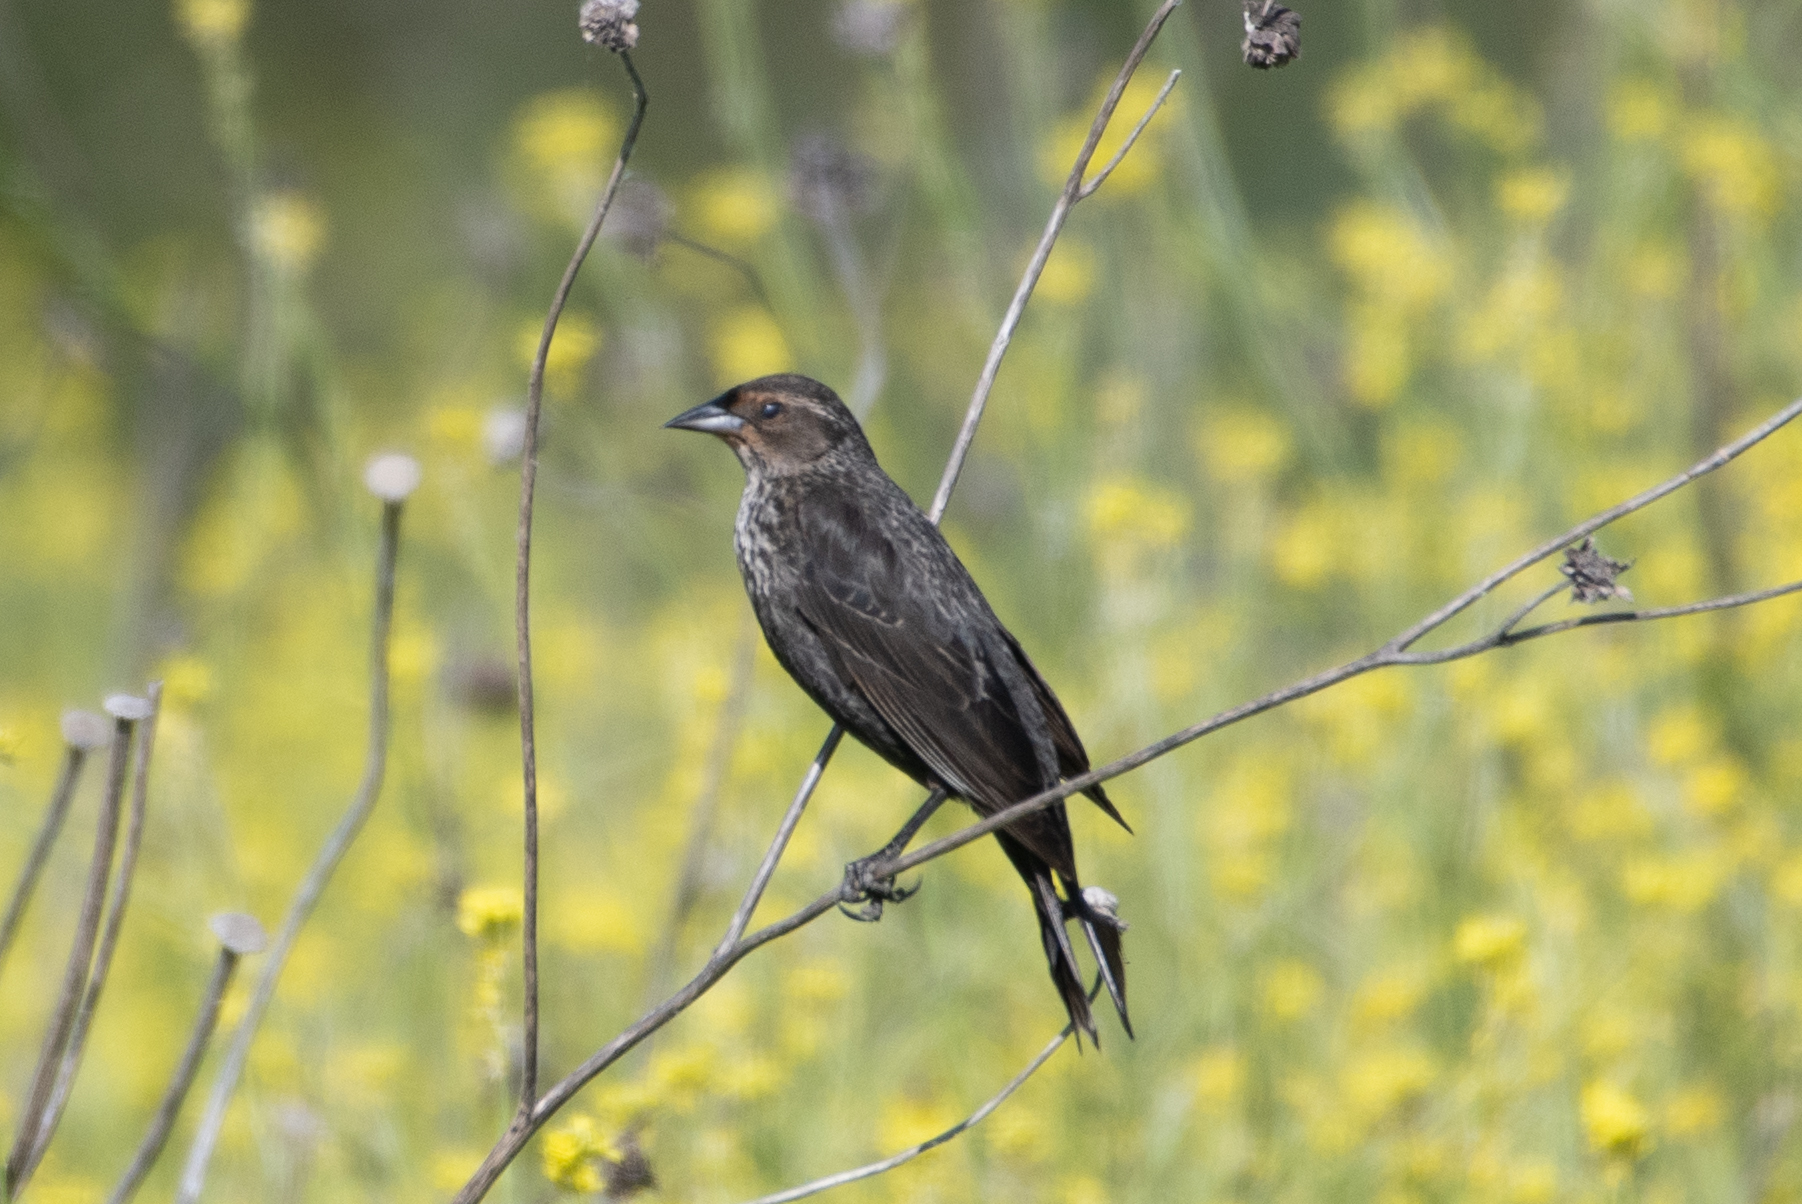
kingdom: Animalia
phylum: Chordata
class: Aves
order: Passeriformes
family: Icteridae
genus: Agelaius
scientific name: Agelaius phoeniceus
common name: Red-winged blackbird
